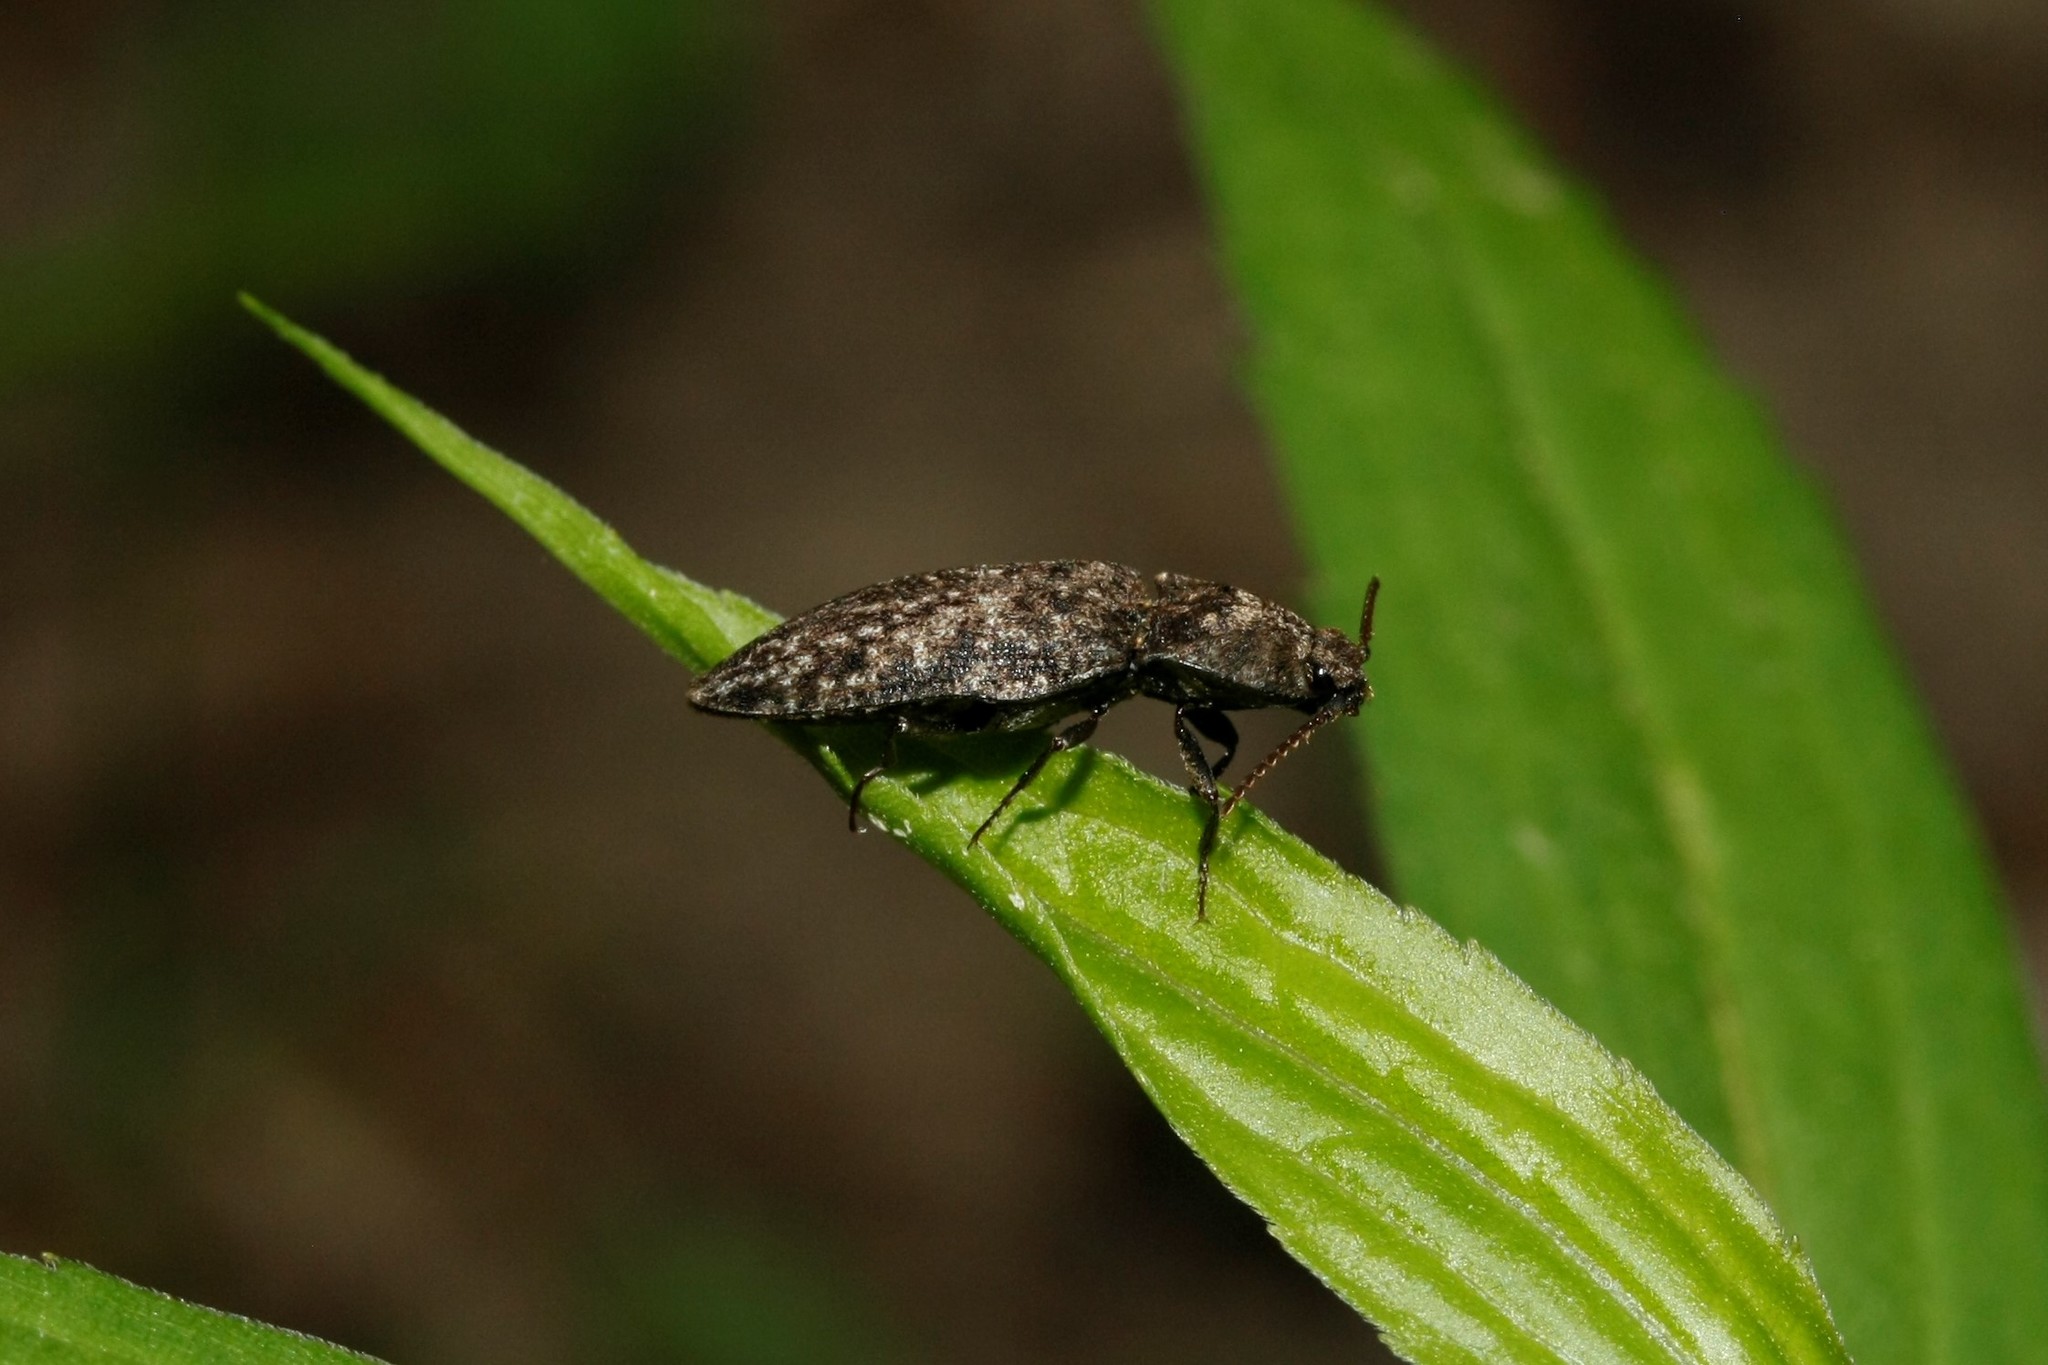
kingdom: Animalia
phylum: Arthropoda
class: Insecta
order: Coleoptera
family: Elateridae
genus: Agrypnus
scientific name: Agrypnus murinus
